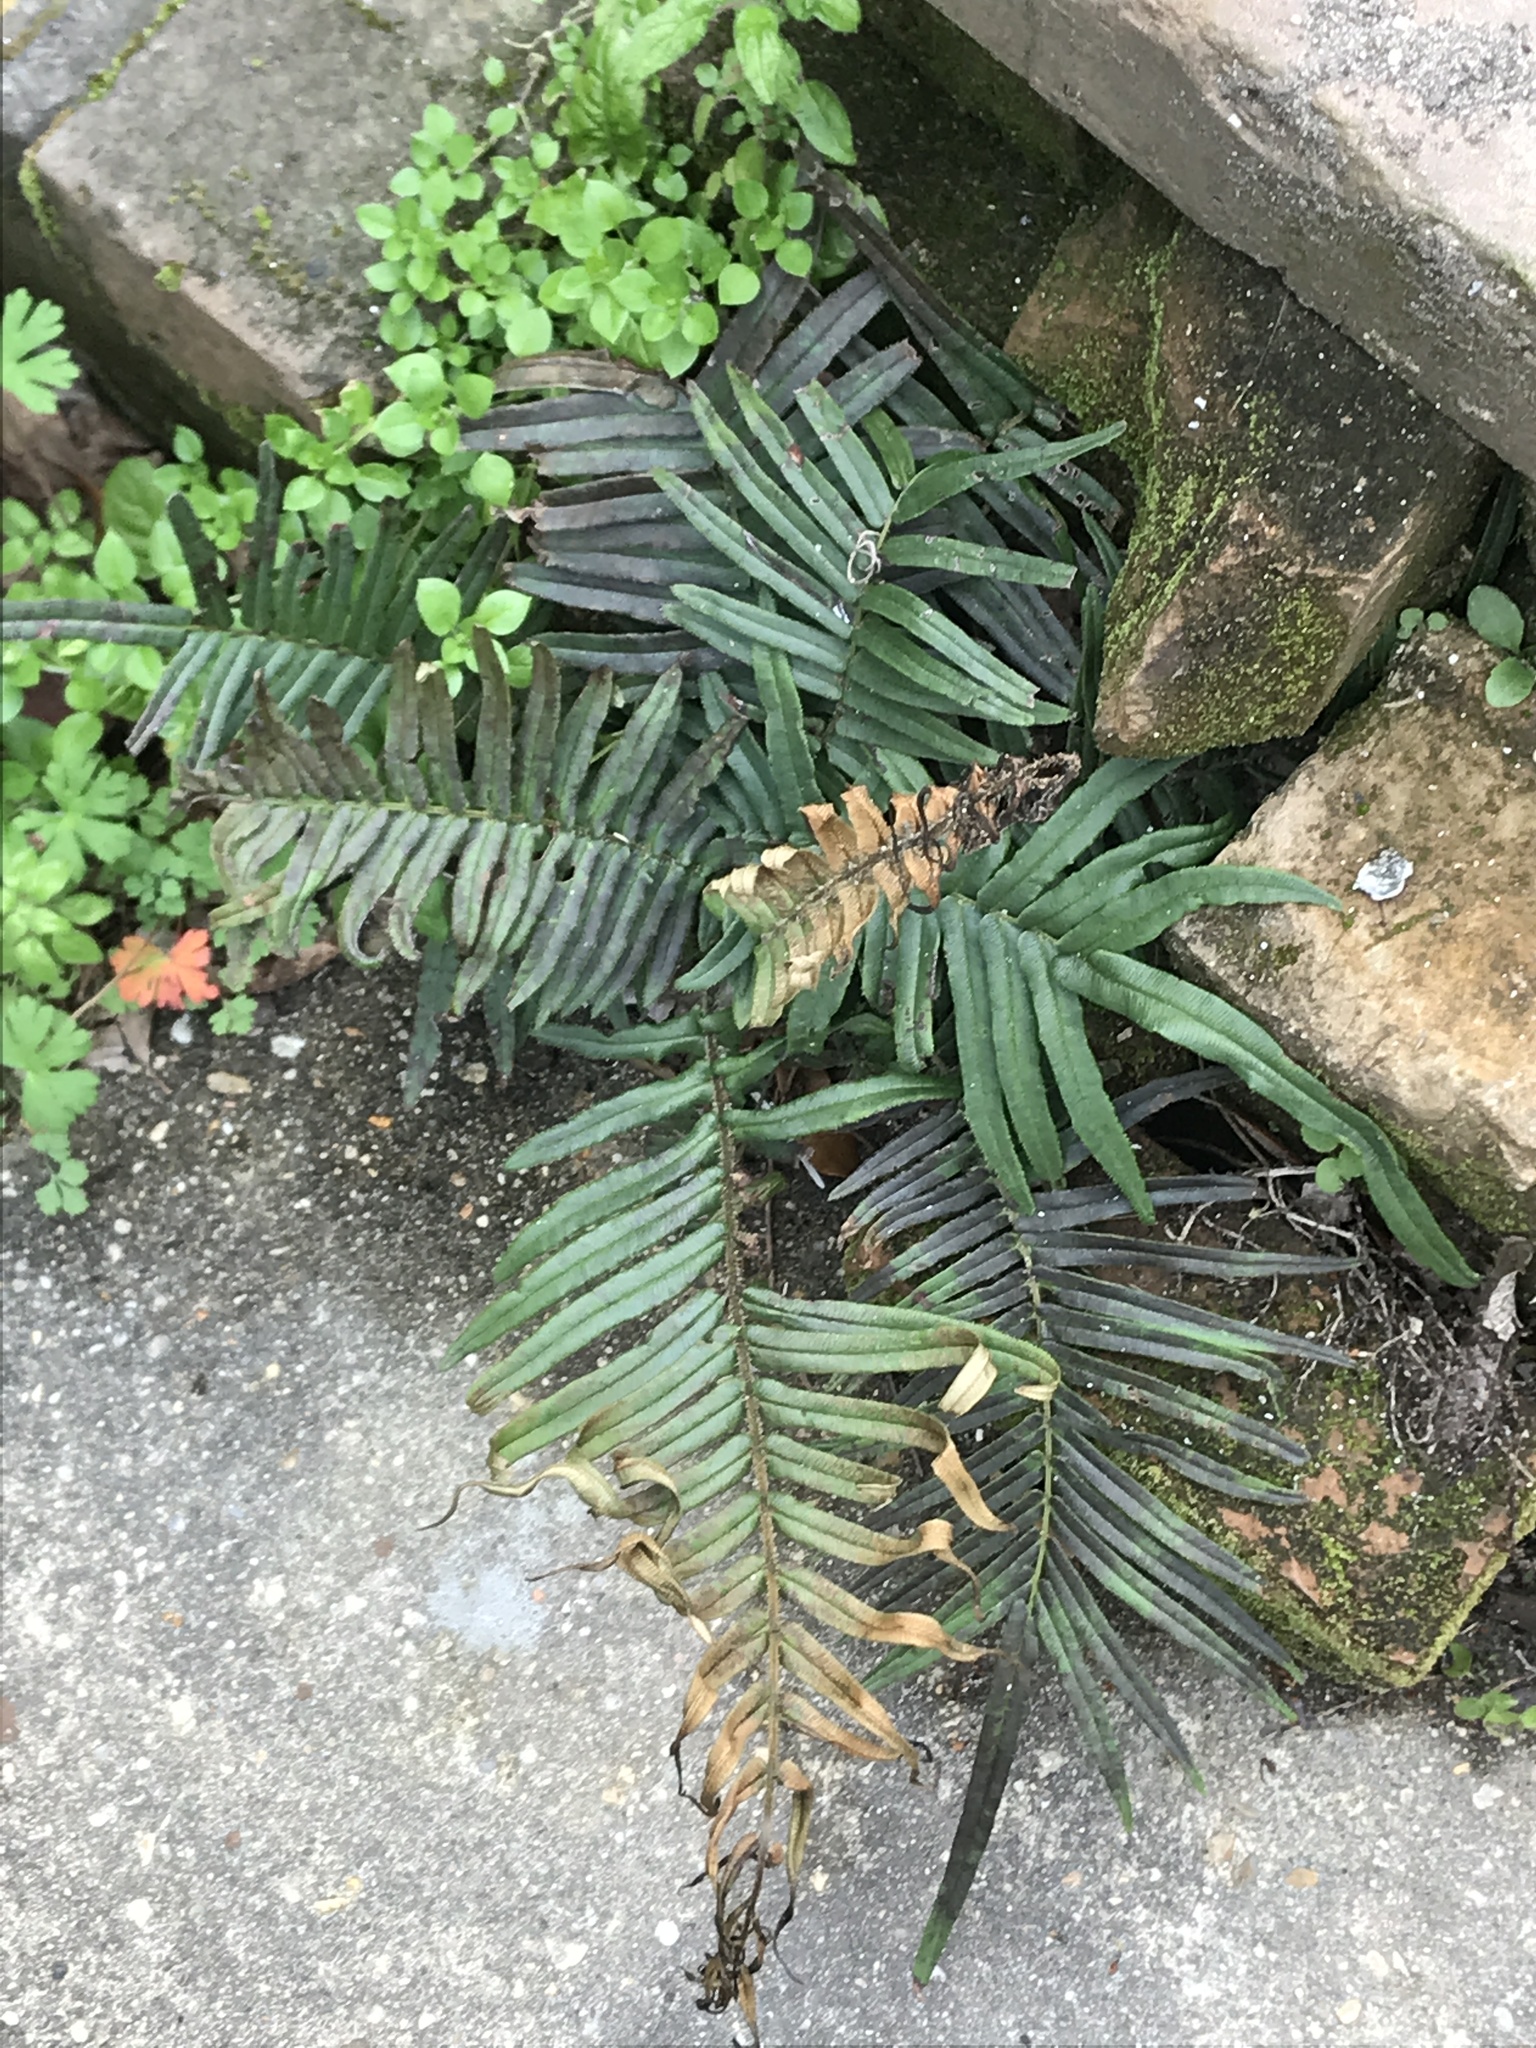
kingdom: Plantae
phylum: Tracheophyta
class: Polypodiopsida
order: Polypodiales
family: Pteridaceae
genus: Pteris
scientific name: Pteris vittata
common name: Ladder brake
